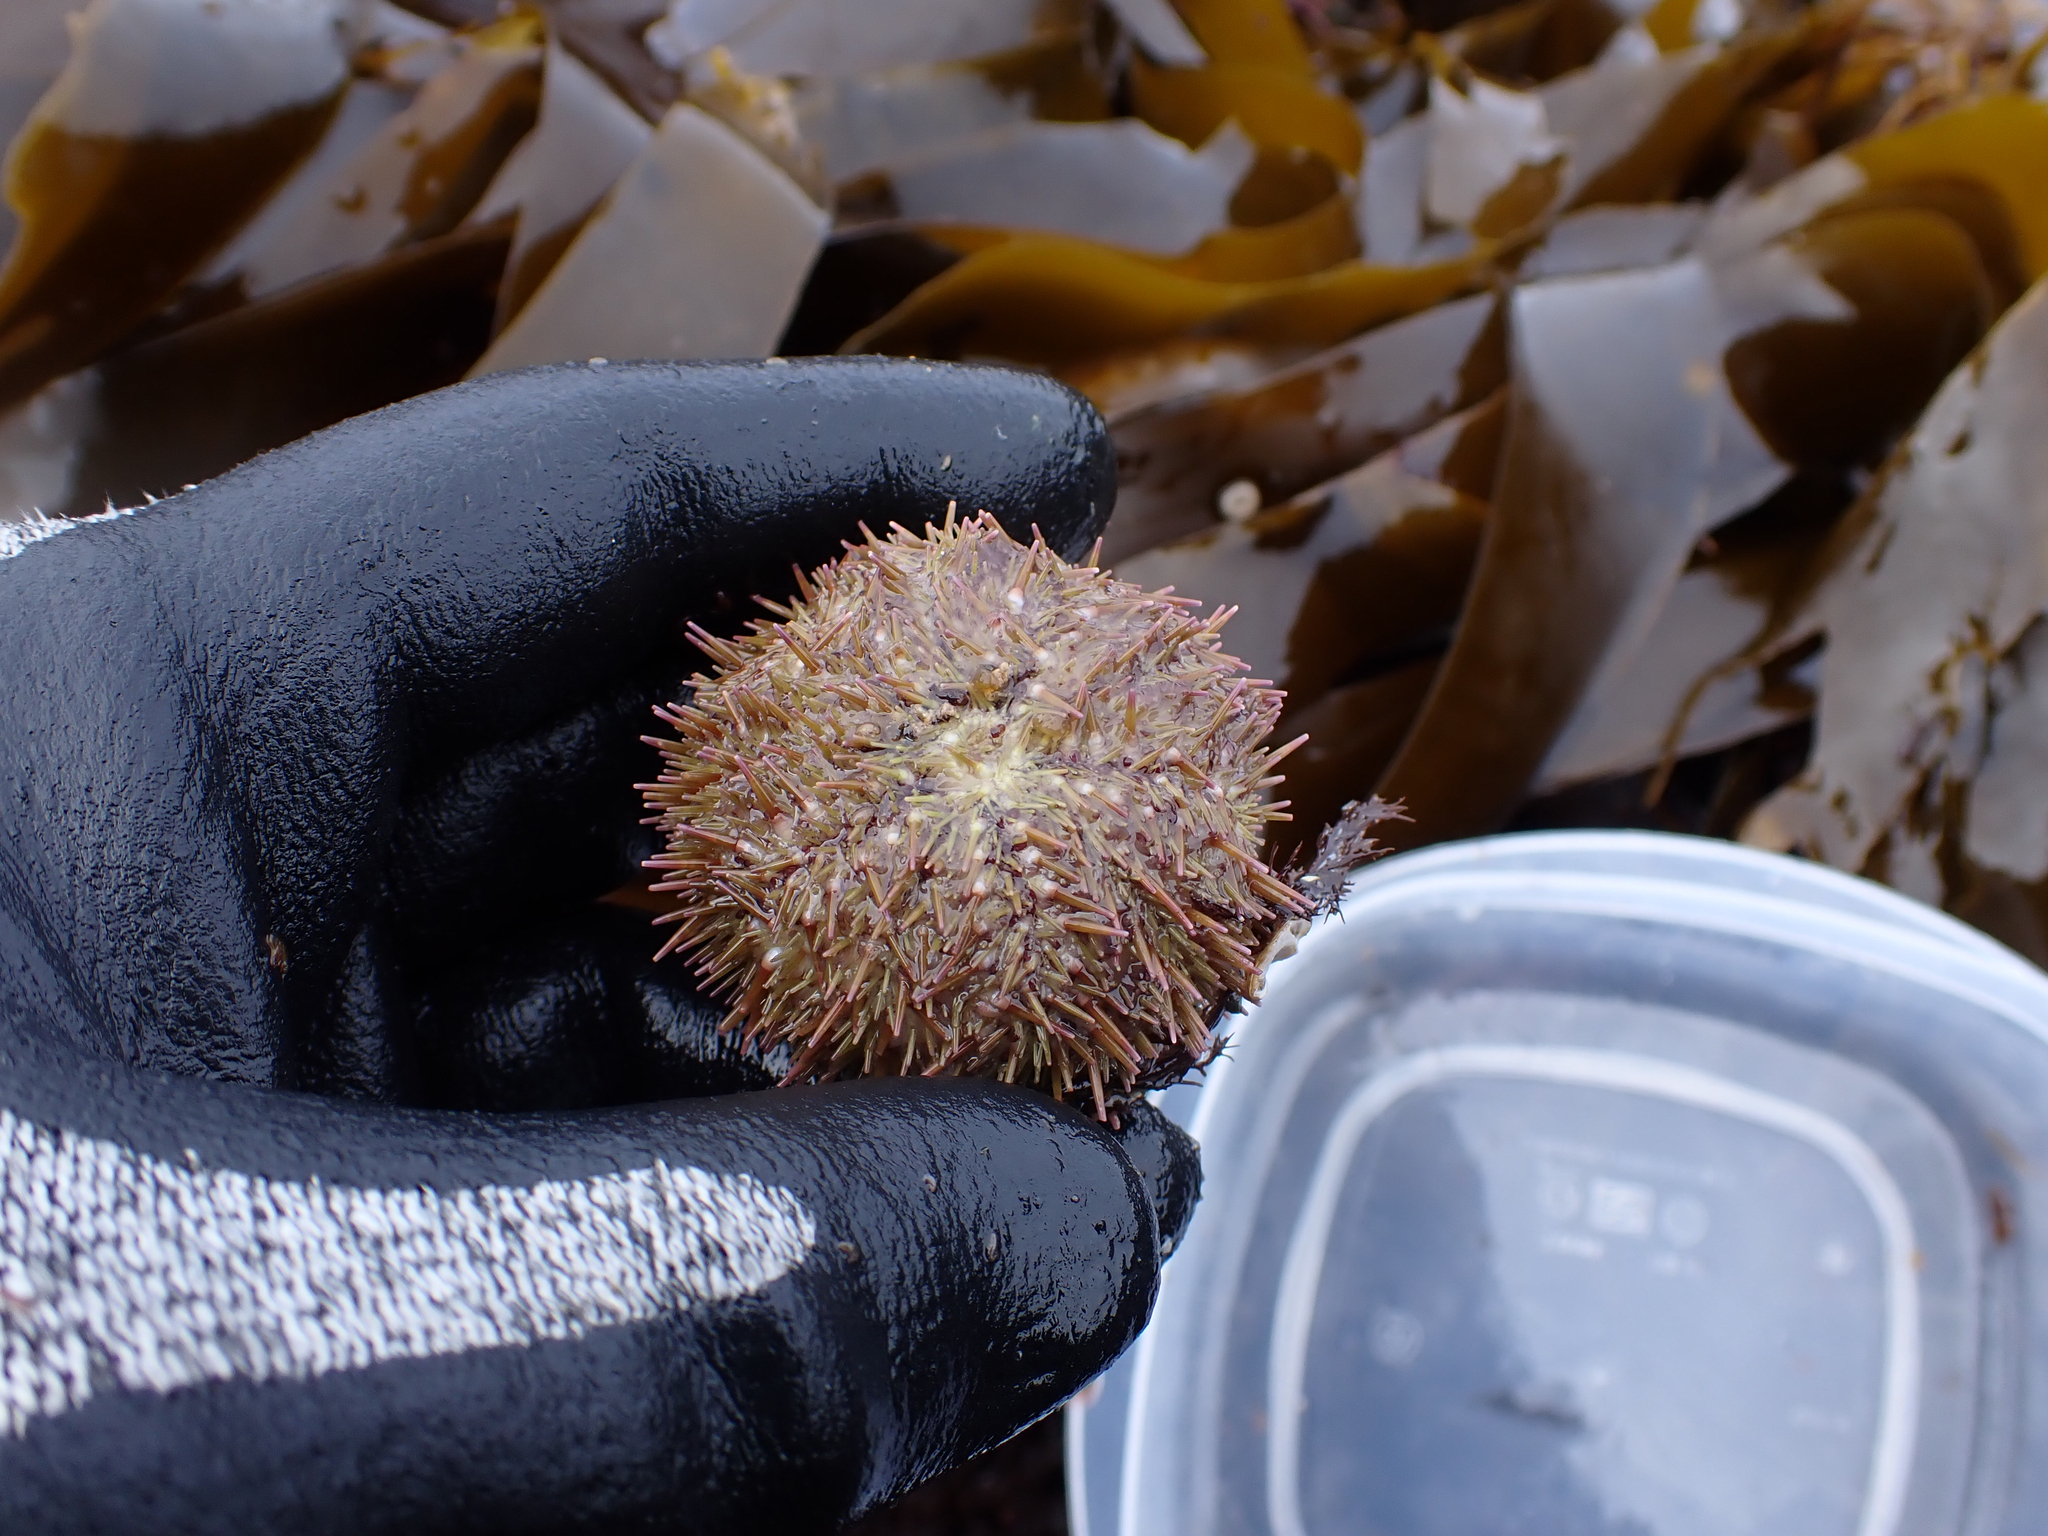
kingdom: Animalia
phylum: Echinodermata
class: Echinoidea
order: Camarodonta
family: Strongylocentrotidae
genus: Strongylocentrotus
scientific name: Strongylocentrotus droebachiensis
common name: Northern sea urchin
